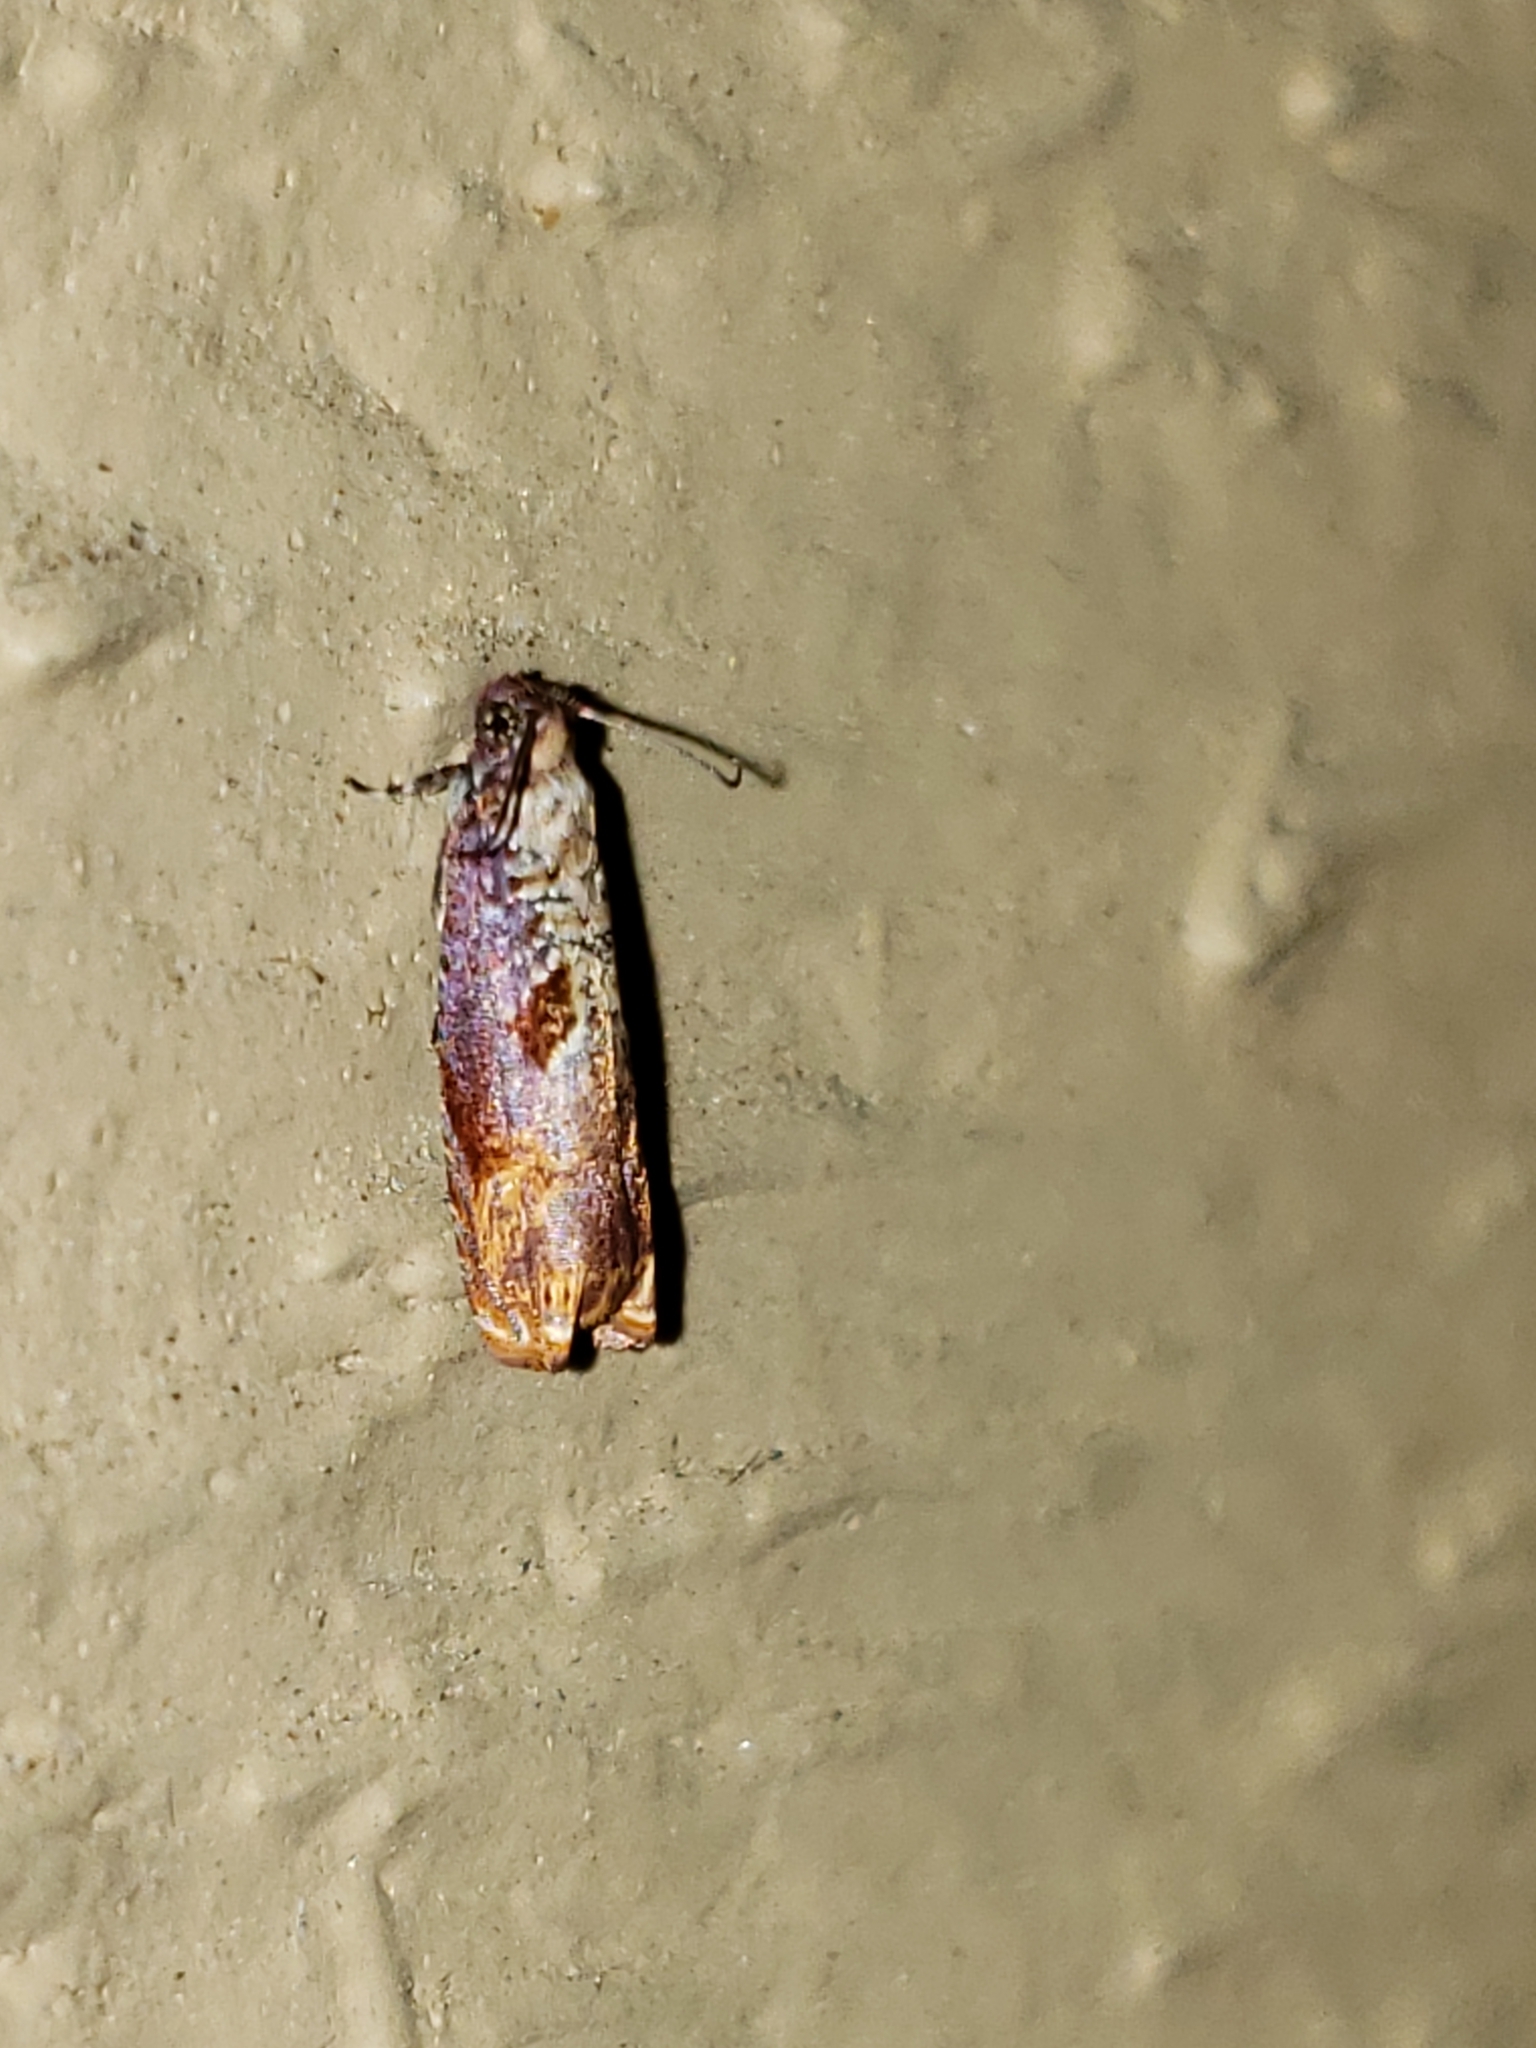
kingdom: Animalia
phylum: Arthropoda
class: Insecta
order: Lepidoptera
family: Tortricidae
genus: Episimus
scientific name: Episimus tyrius
